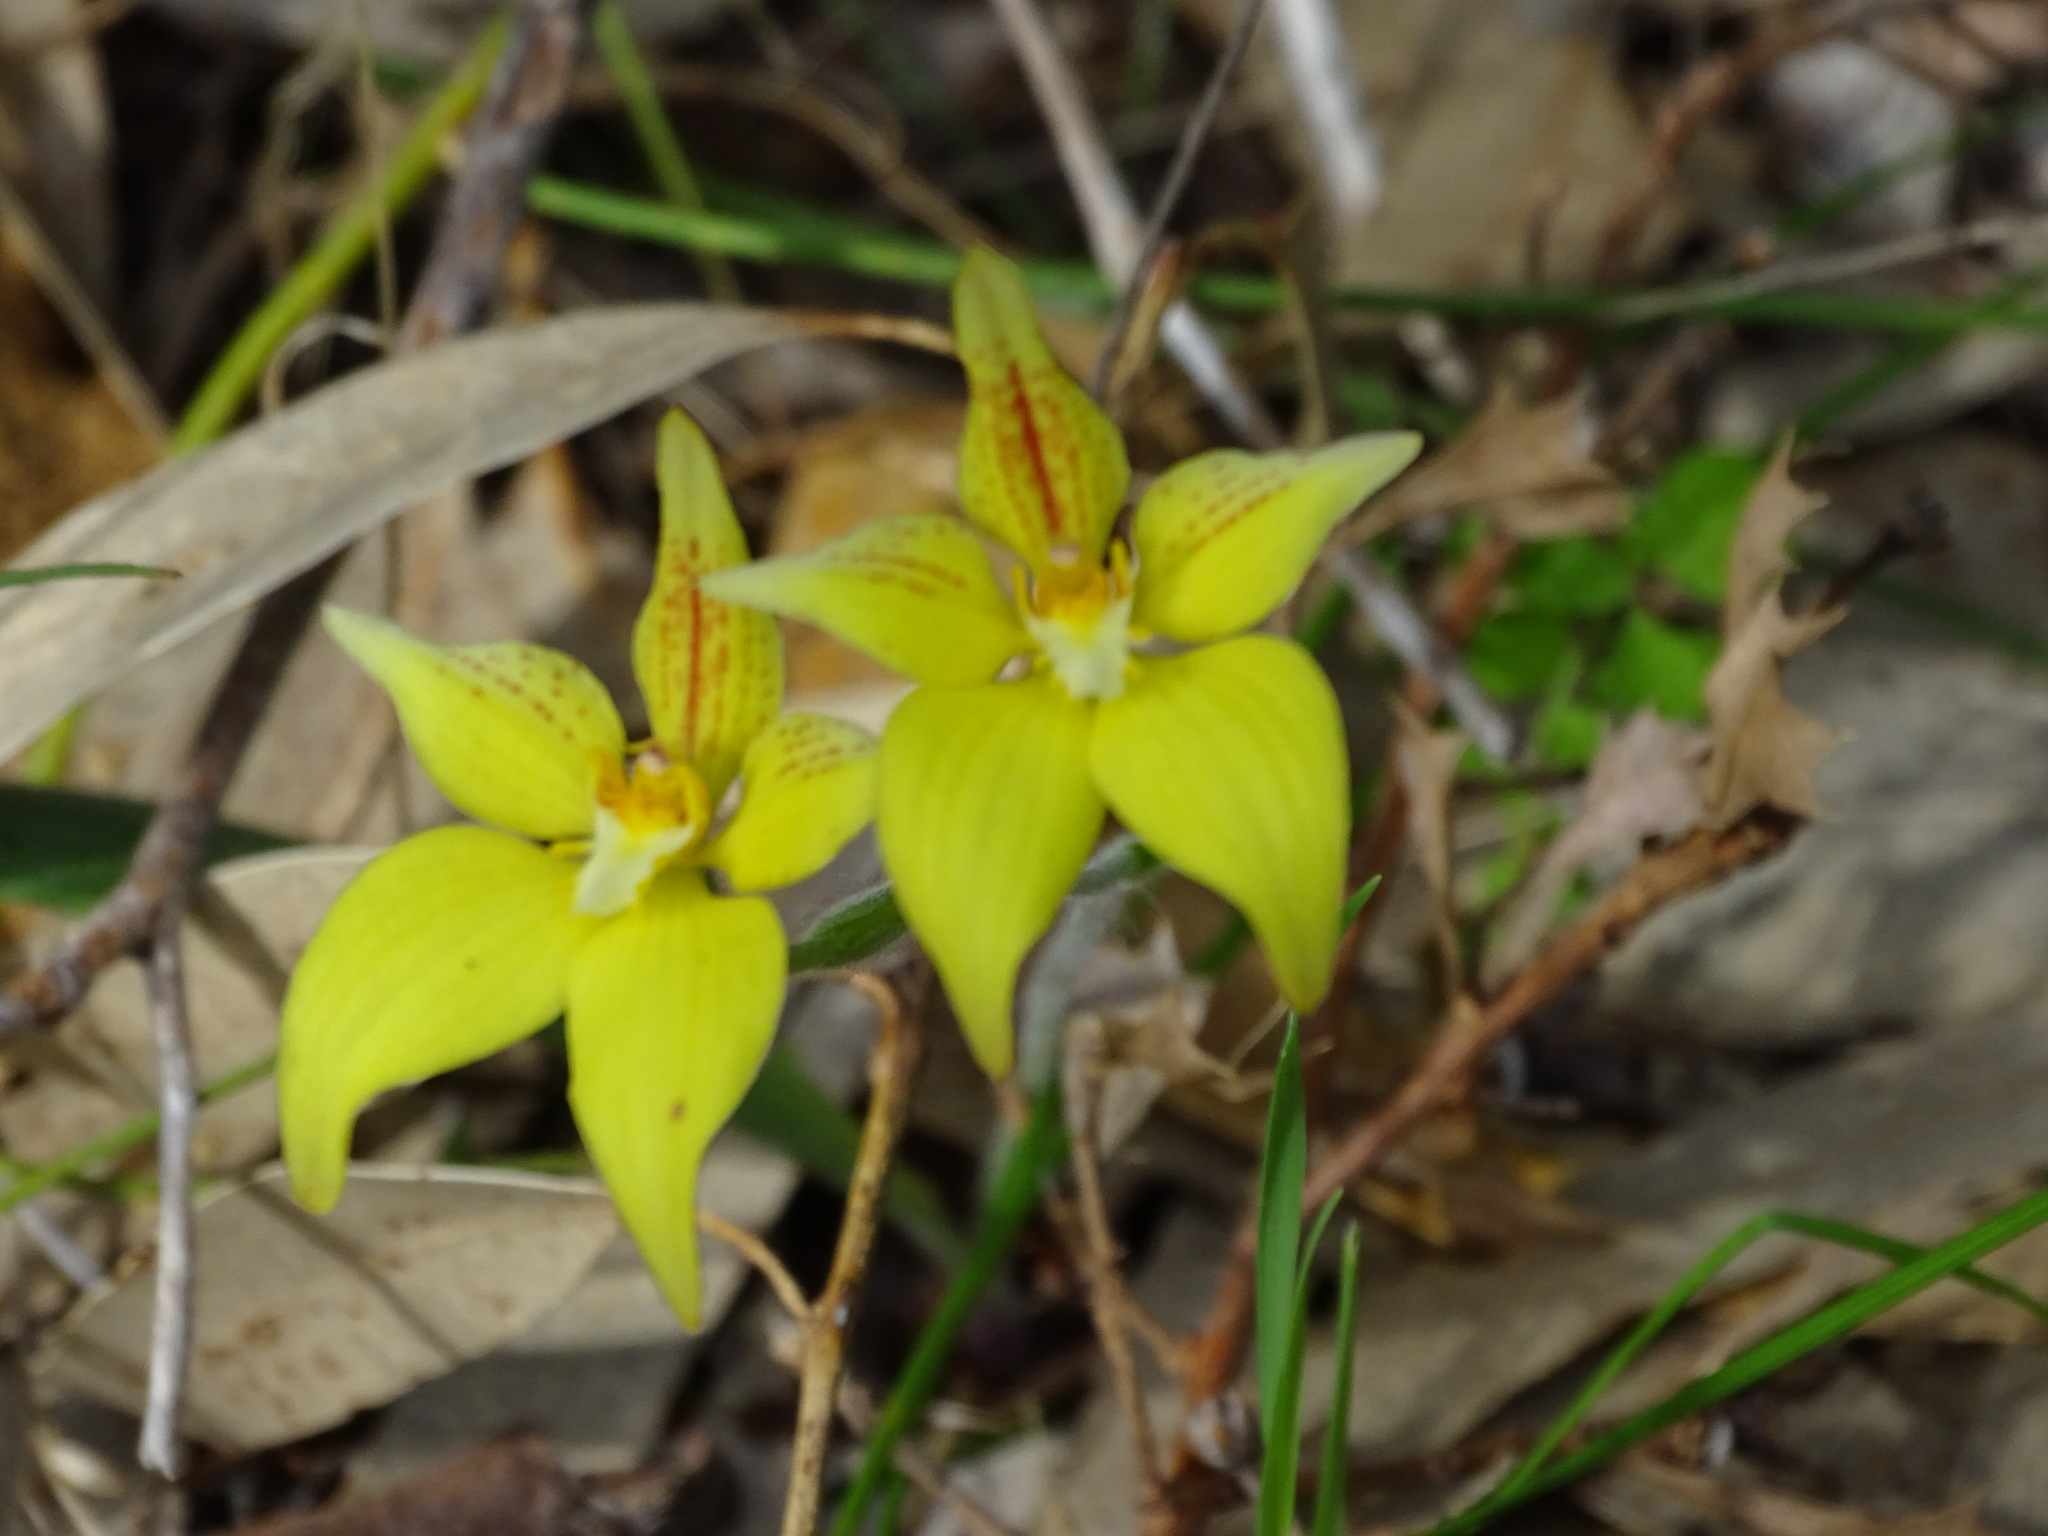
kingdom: Plantae
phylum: Tracheophyta
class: Liliopsida
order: Asparagales
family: Orchidaceae
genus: Caladenia
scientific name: Caladenia flava
